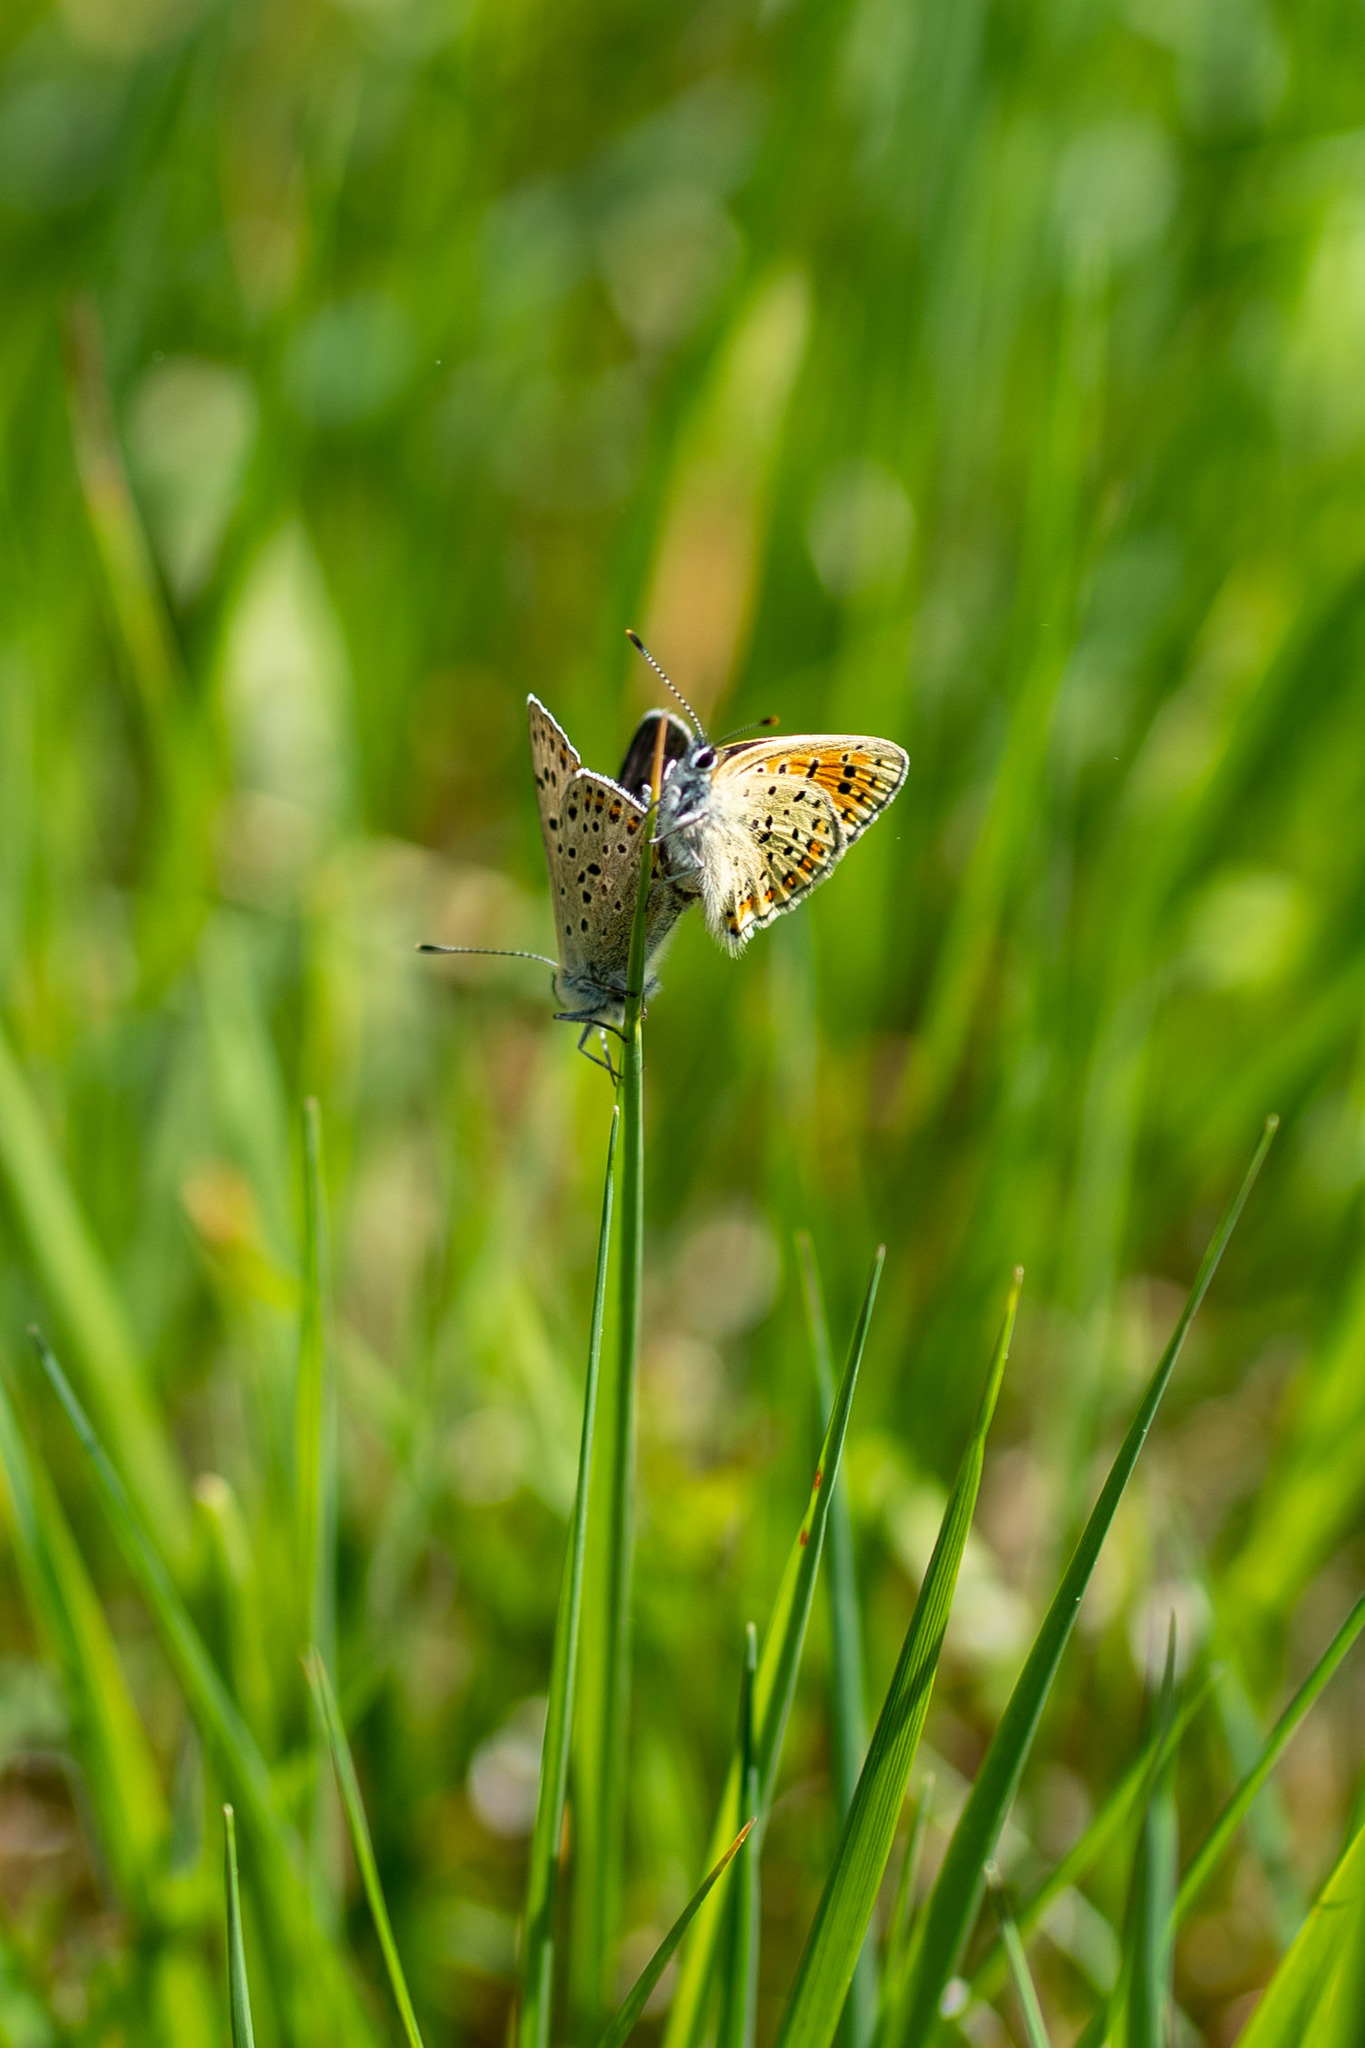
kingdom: Animalia
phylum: Arthropoda
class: Insecta
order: Lepidoptera
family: Lycaenidae
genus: Loweia
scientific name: Loweia tityrus
